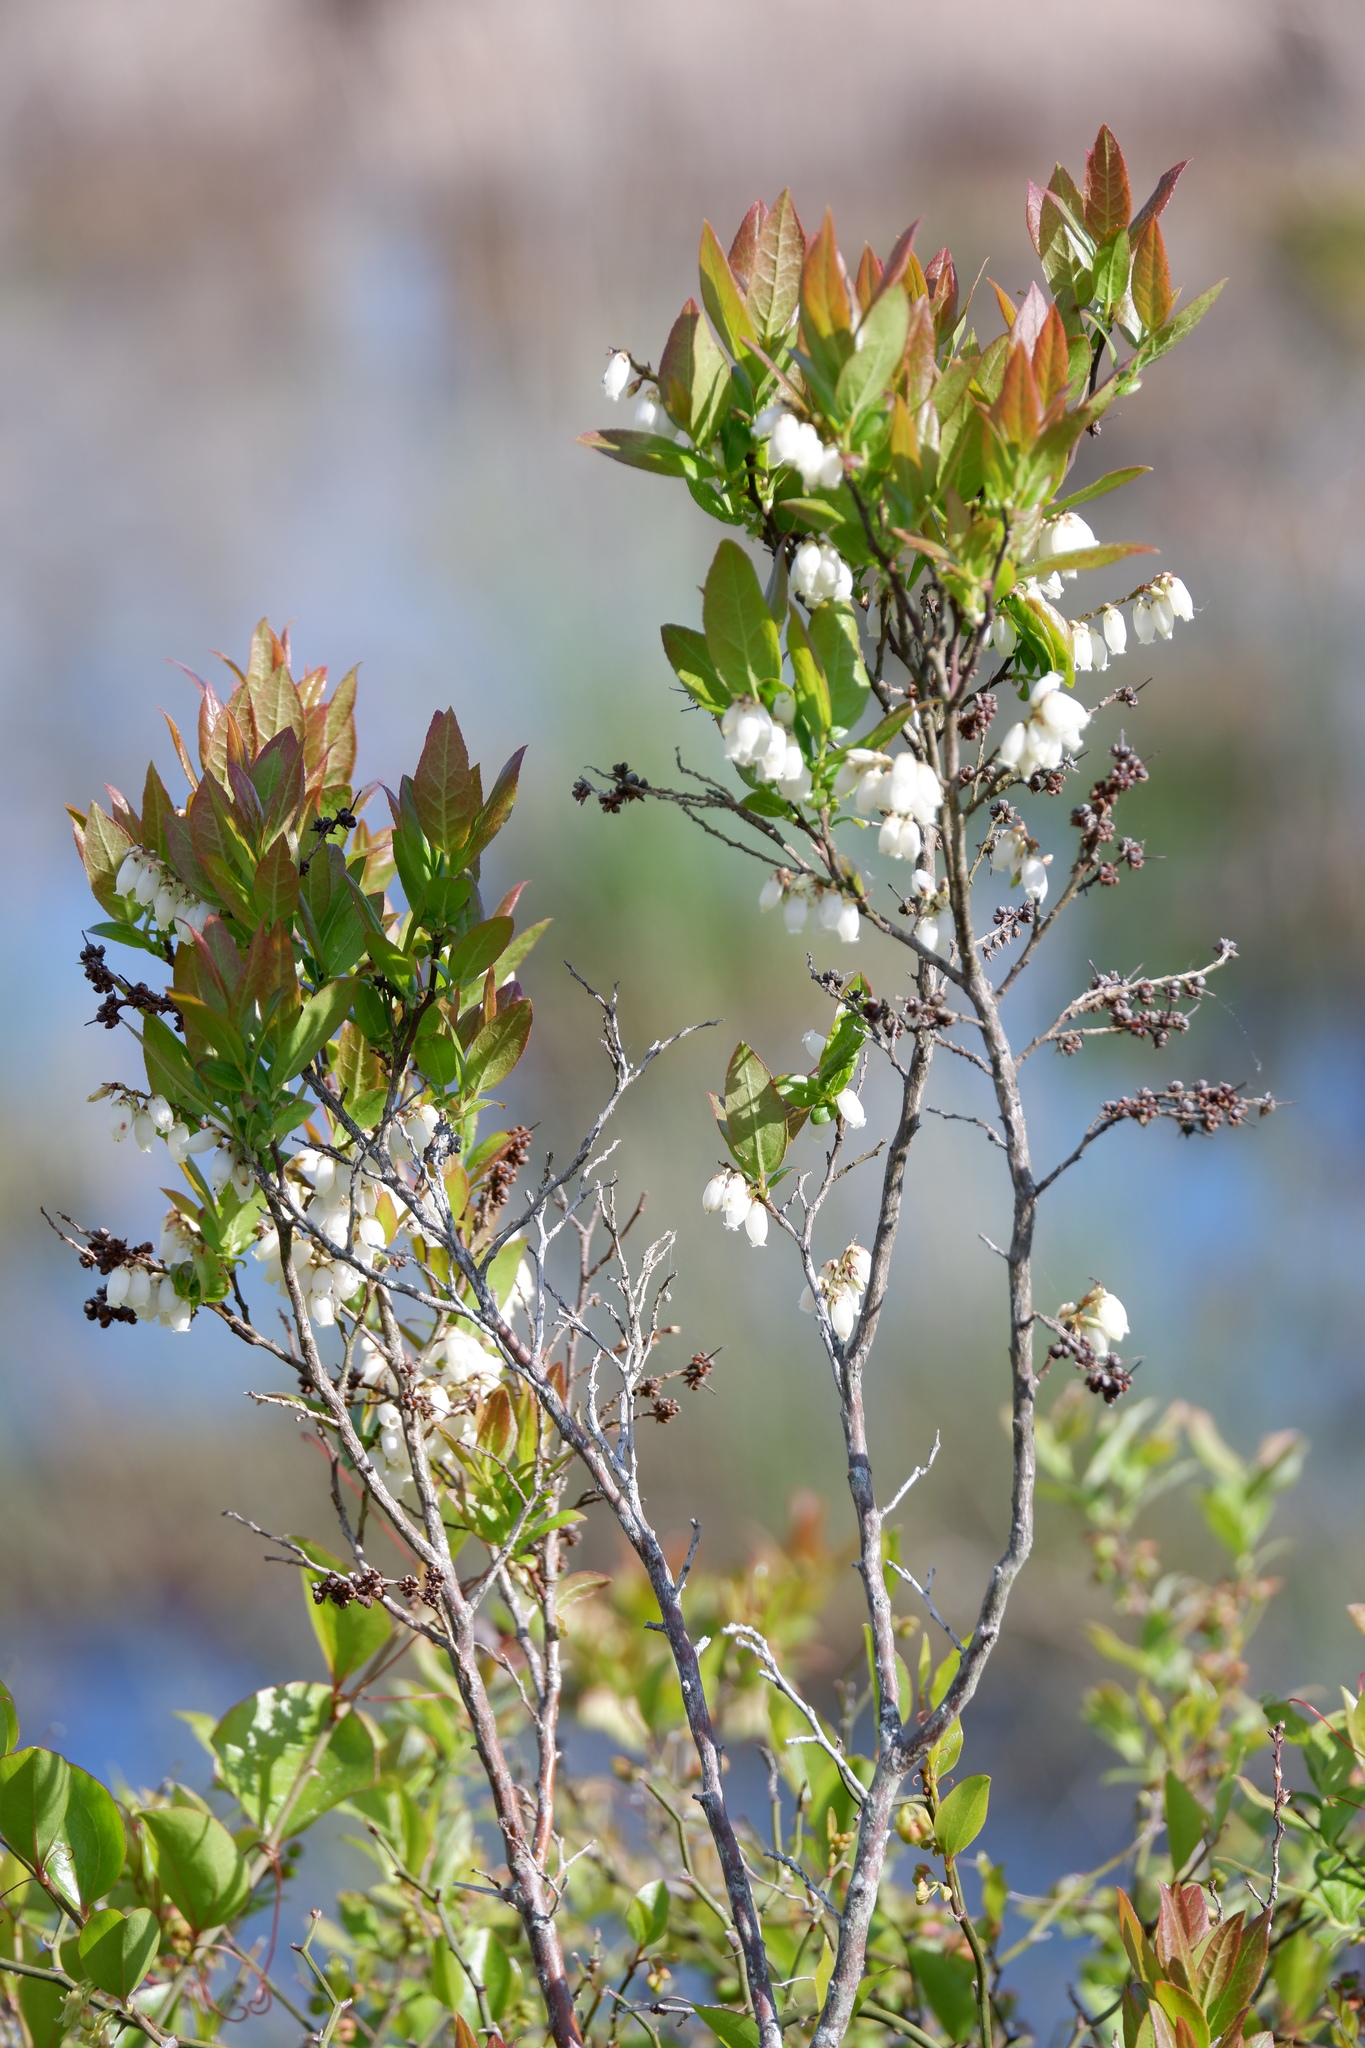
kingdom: Plantae
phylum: Tracheophyta
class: Magnoliopsida
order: Ericales
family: Ericaceae
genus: Eubotrys
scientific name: Eubotrys racemosa
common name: Fetterbush
